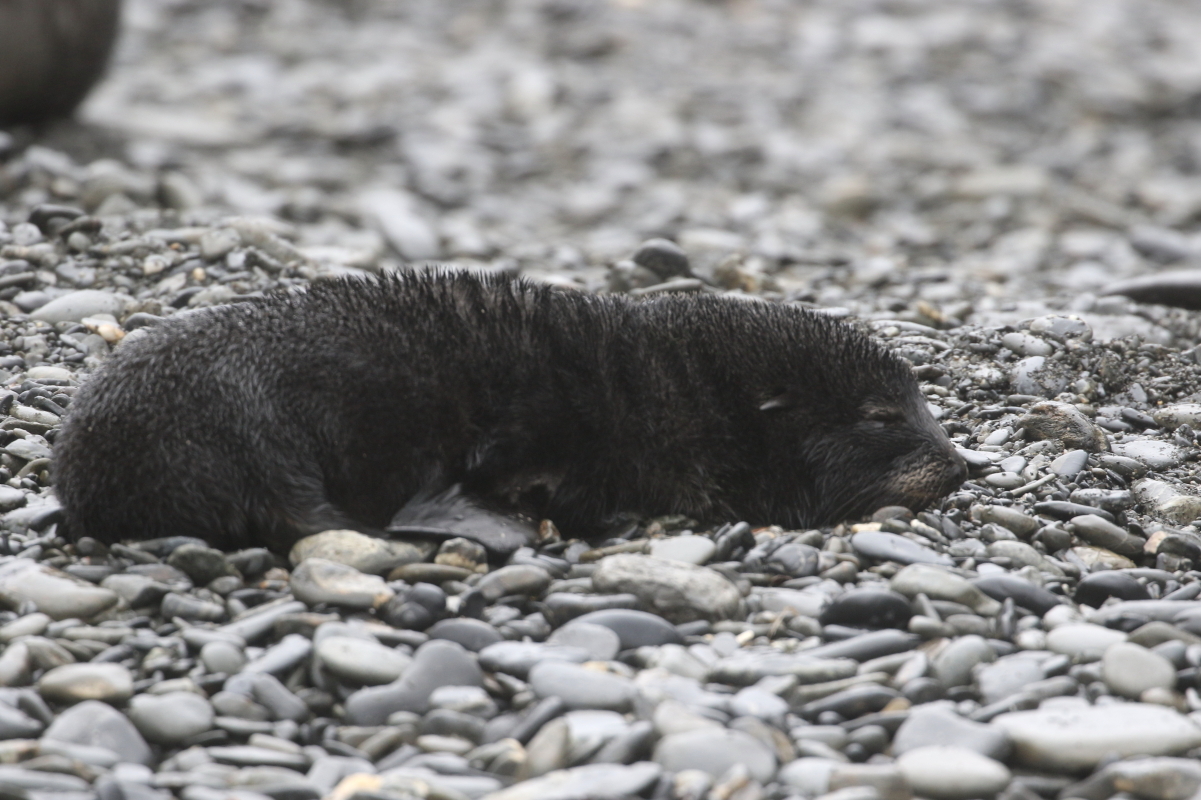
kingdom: Animalia
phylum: Chordata
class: Mammalia
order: Carnivora
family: Otariidae
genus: Arctocephalus
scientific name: Arctocephalus gazella
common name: Antarctic fur seal
